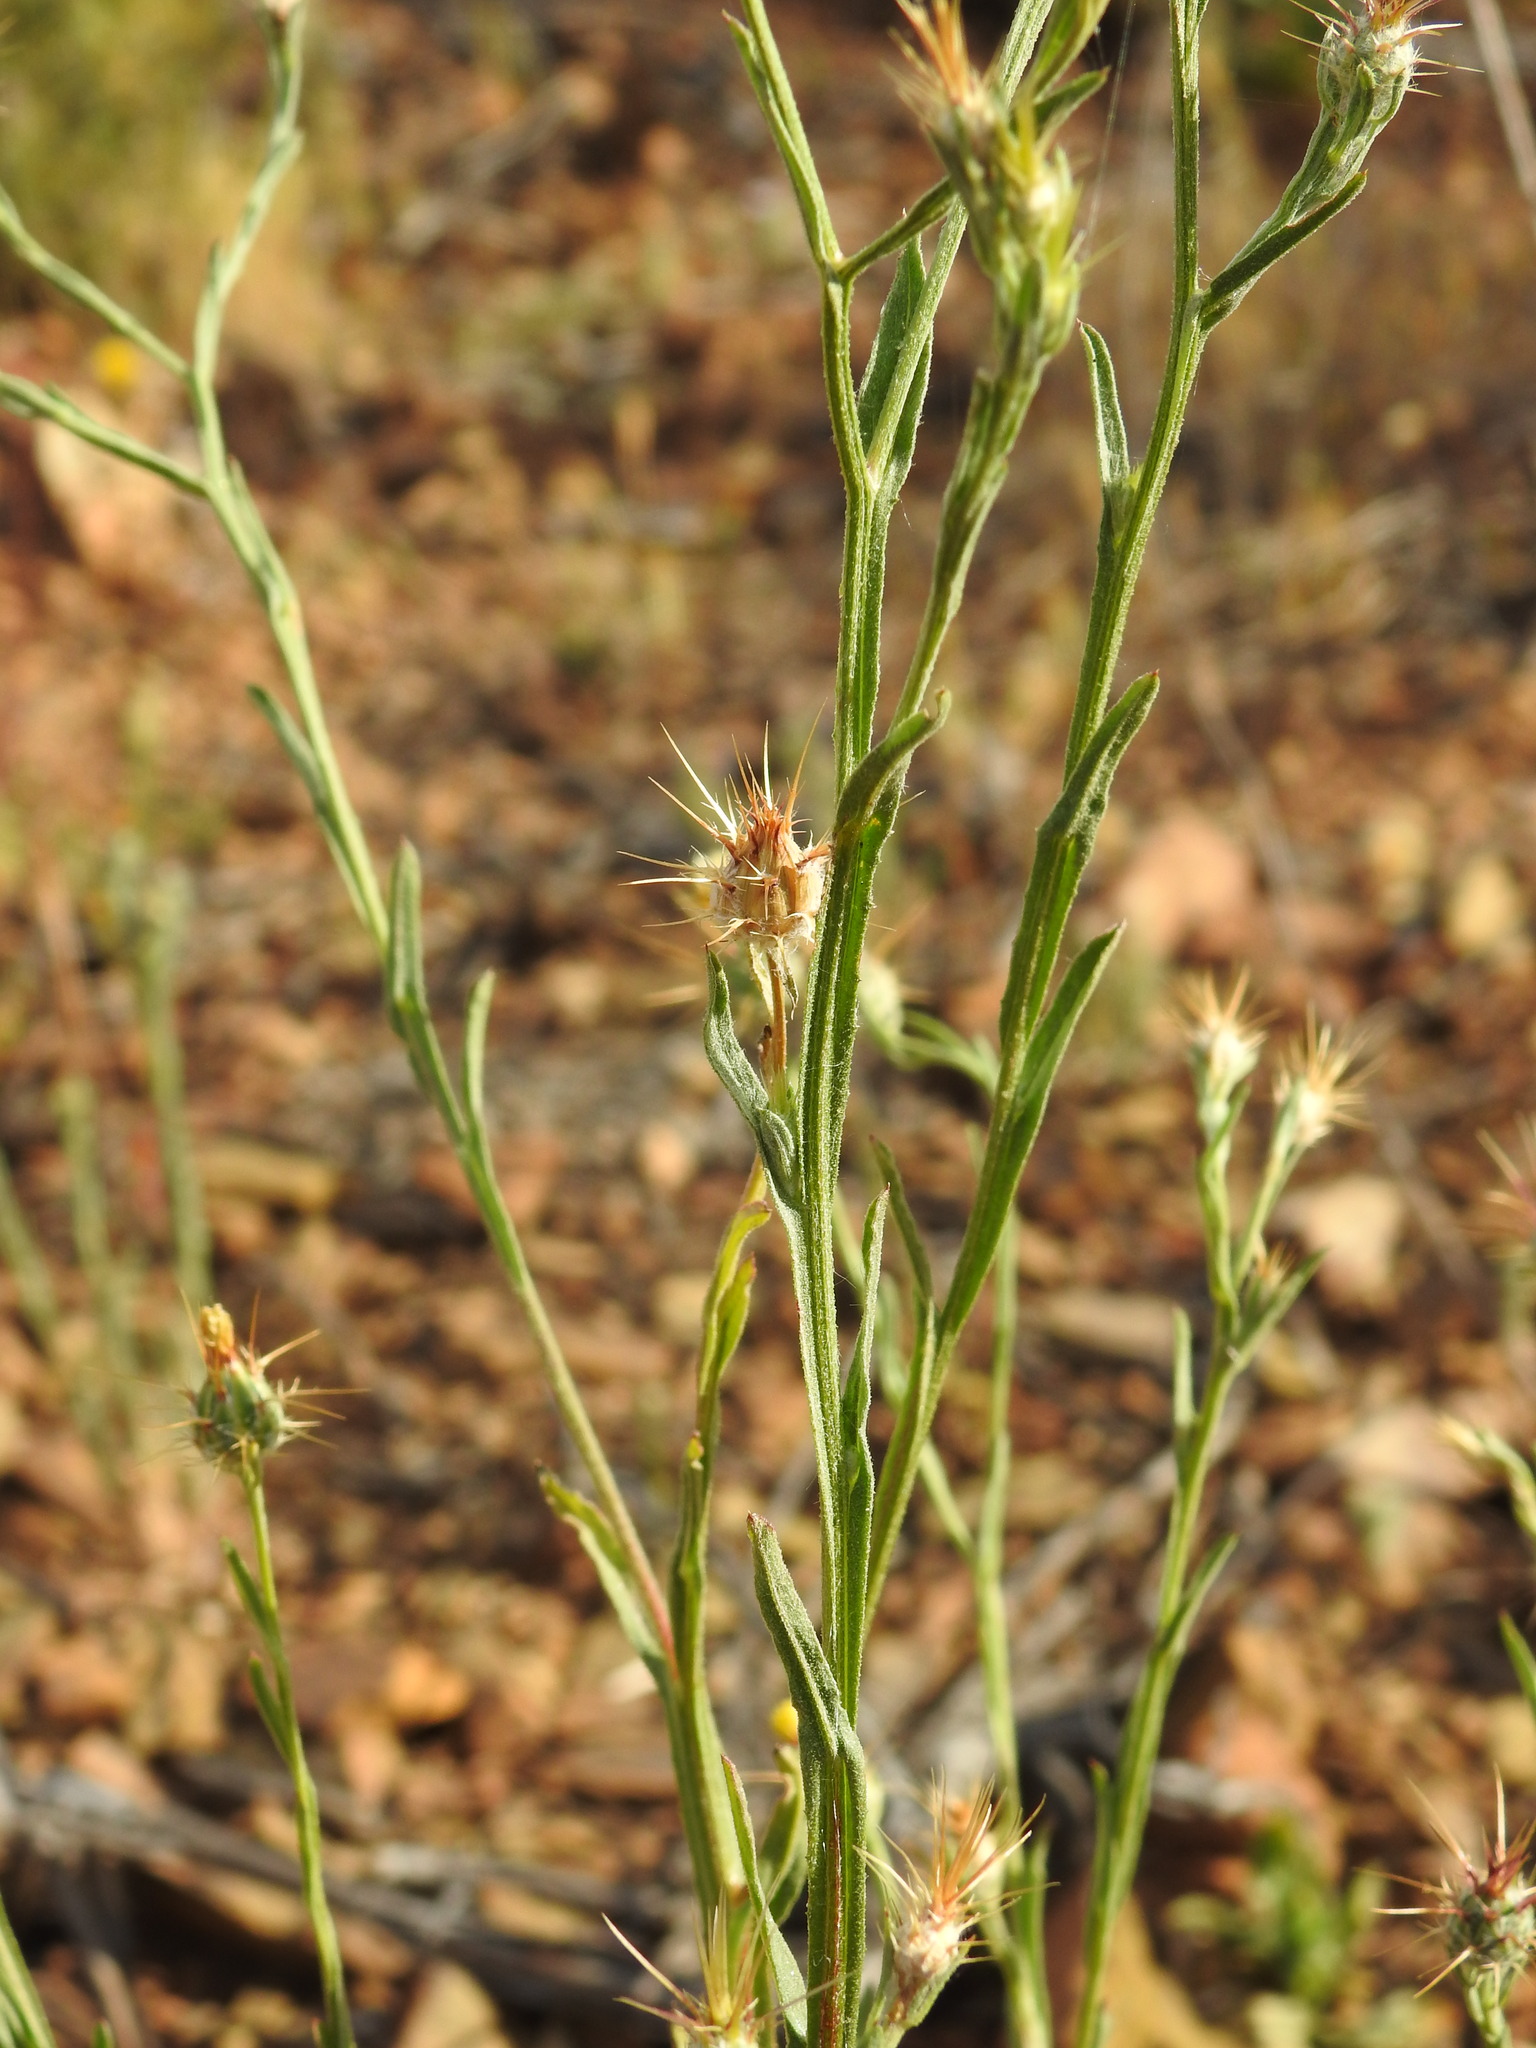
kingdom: Plantae
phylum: Tracheophyta
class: Magnoliopsida
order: Asterales
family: Asteraceae
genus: Centaurea
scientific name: Centaurea melitensis
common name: Maltese star-thistle
